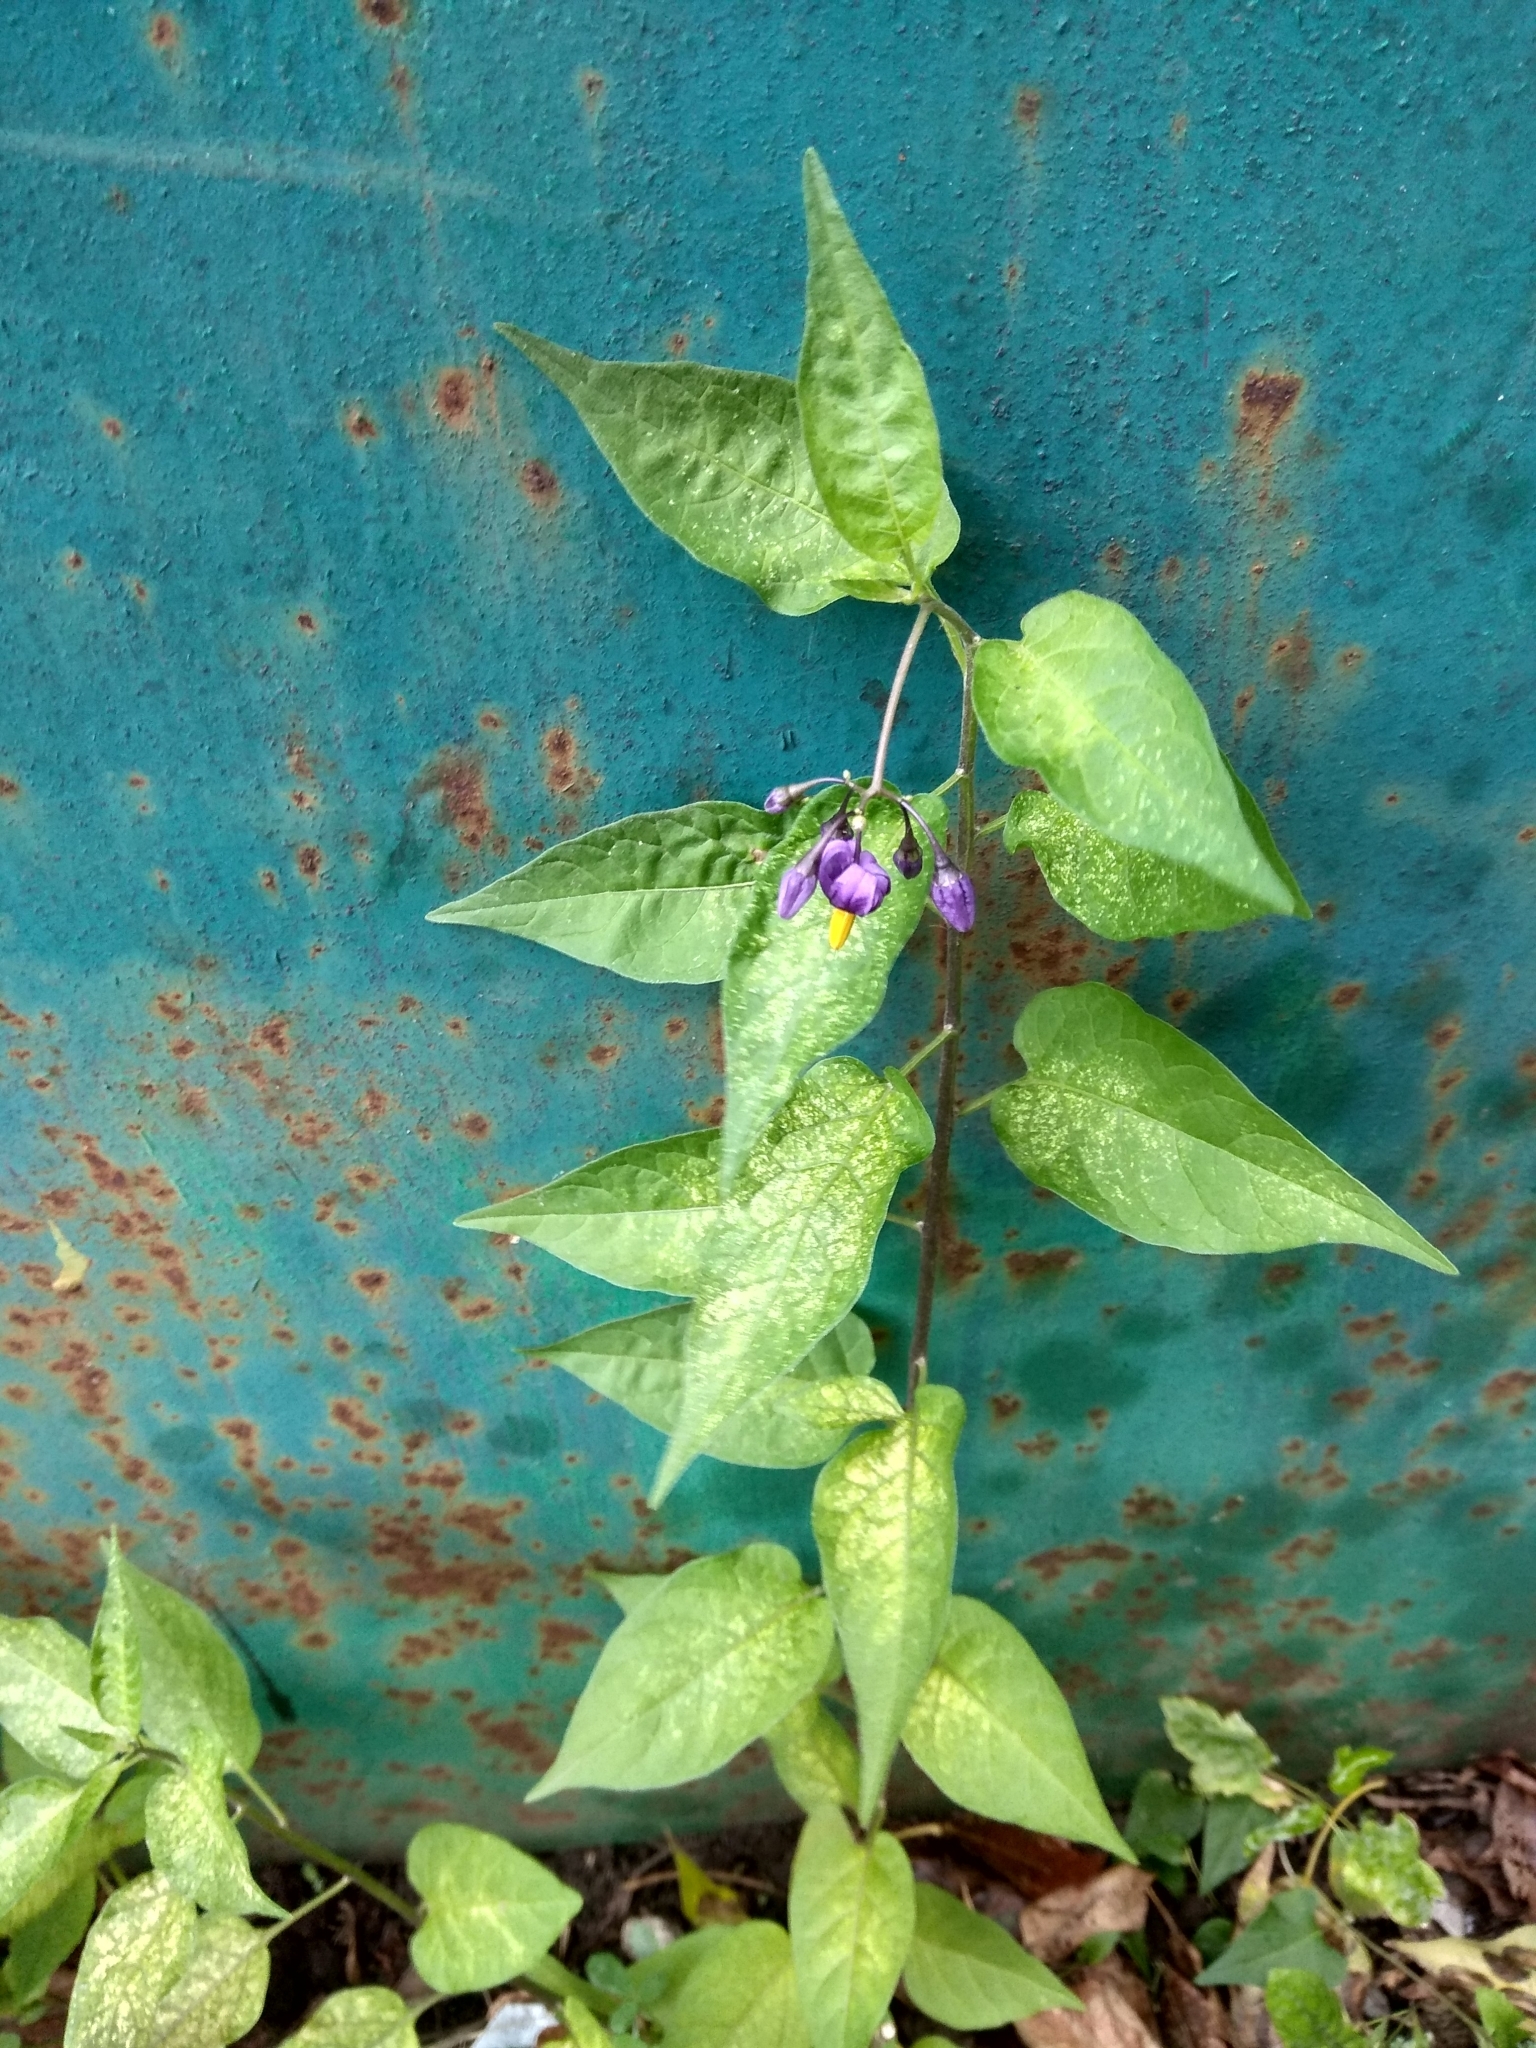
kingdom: Plantae
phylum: Tracheophyta
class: Magnoliopsida
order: Solanales
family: Solanaceae
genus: Solanum
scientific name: Solanum dulcamara
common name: Climbing nightshade
